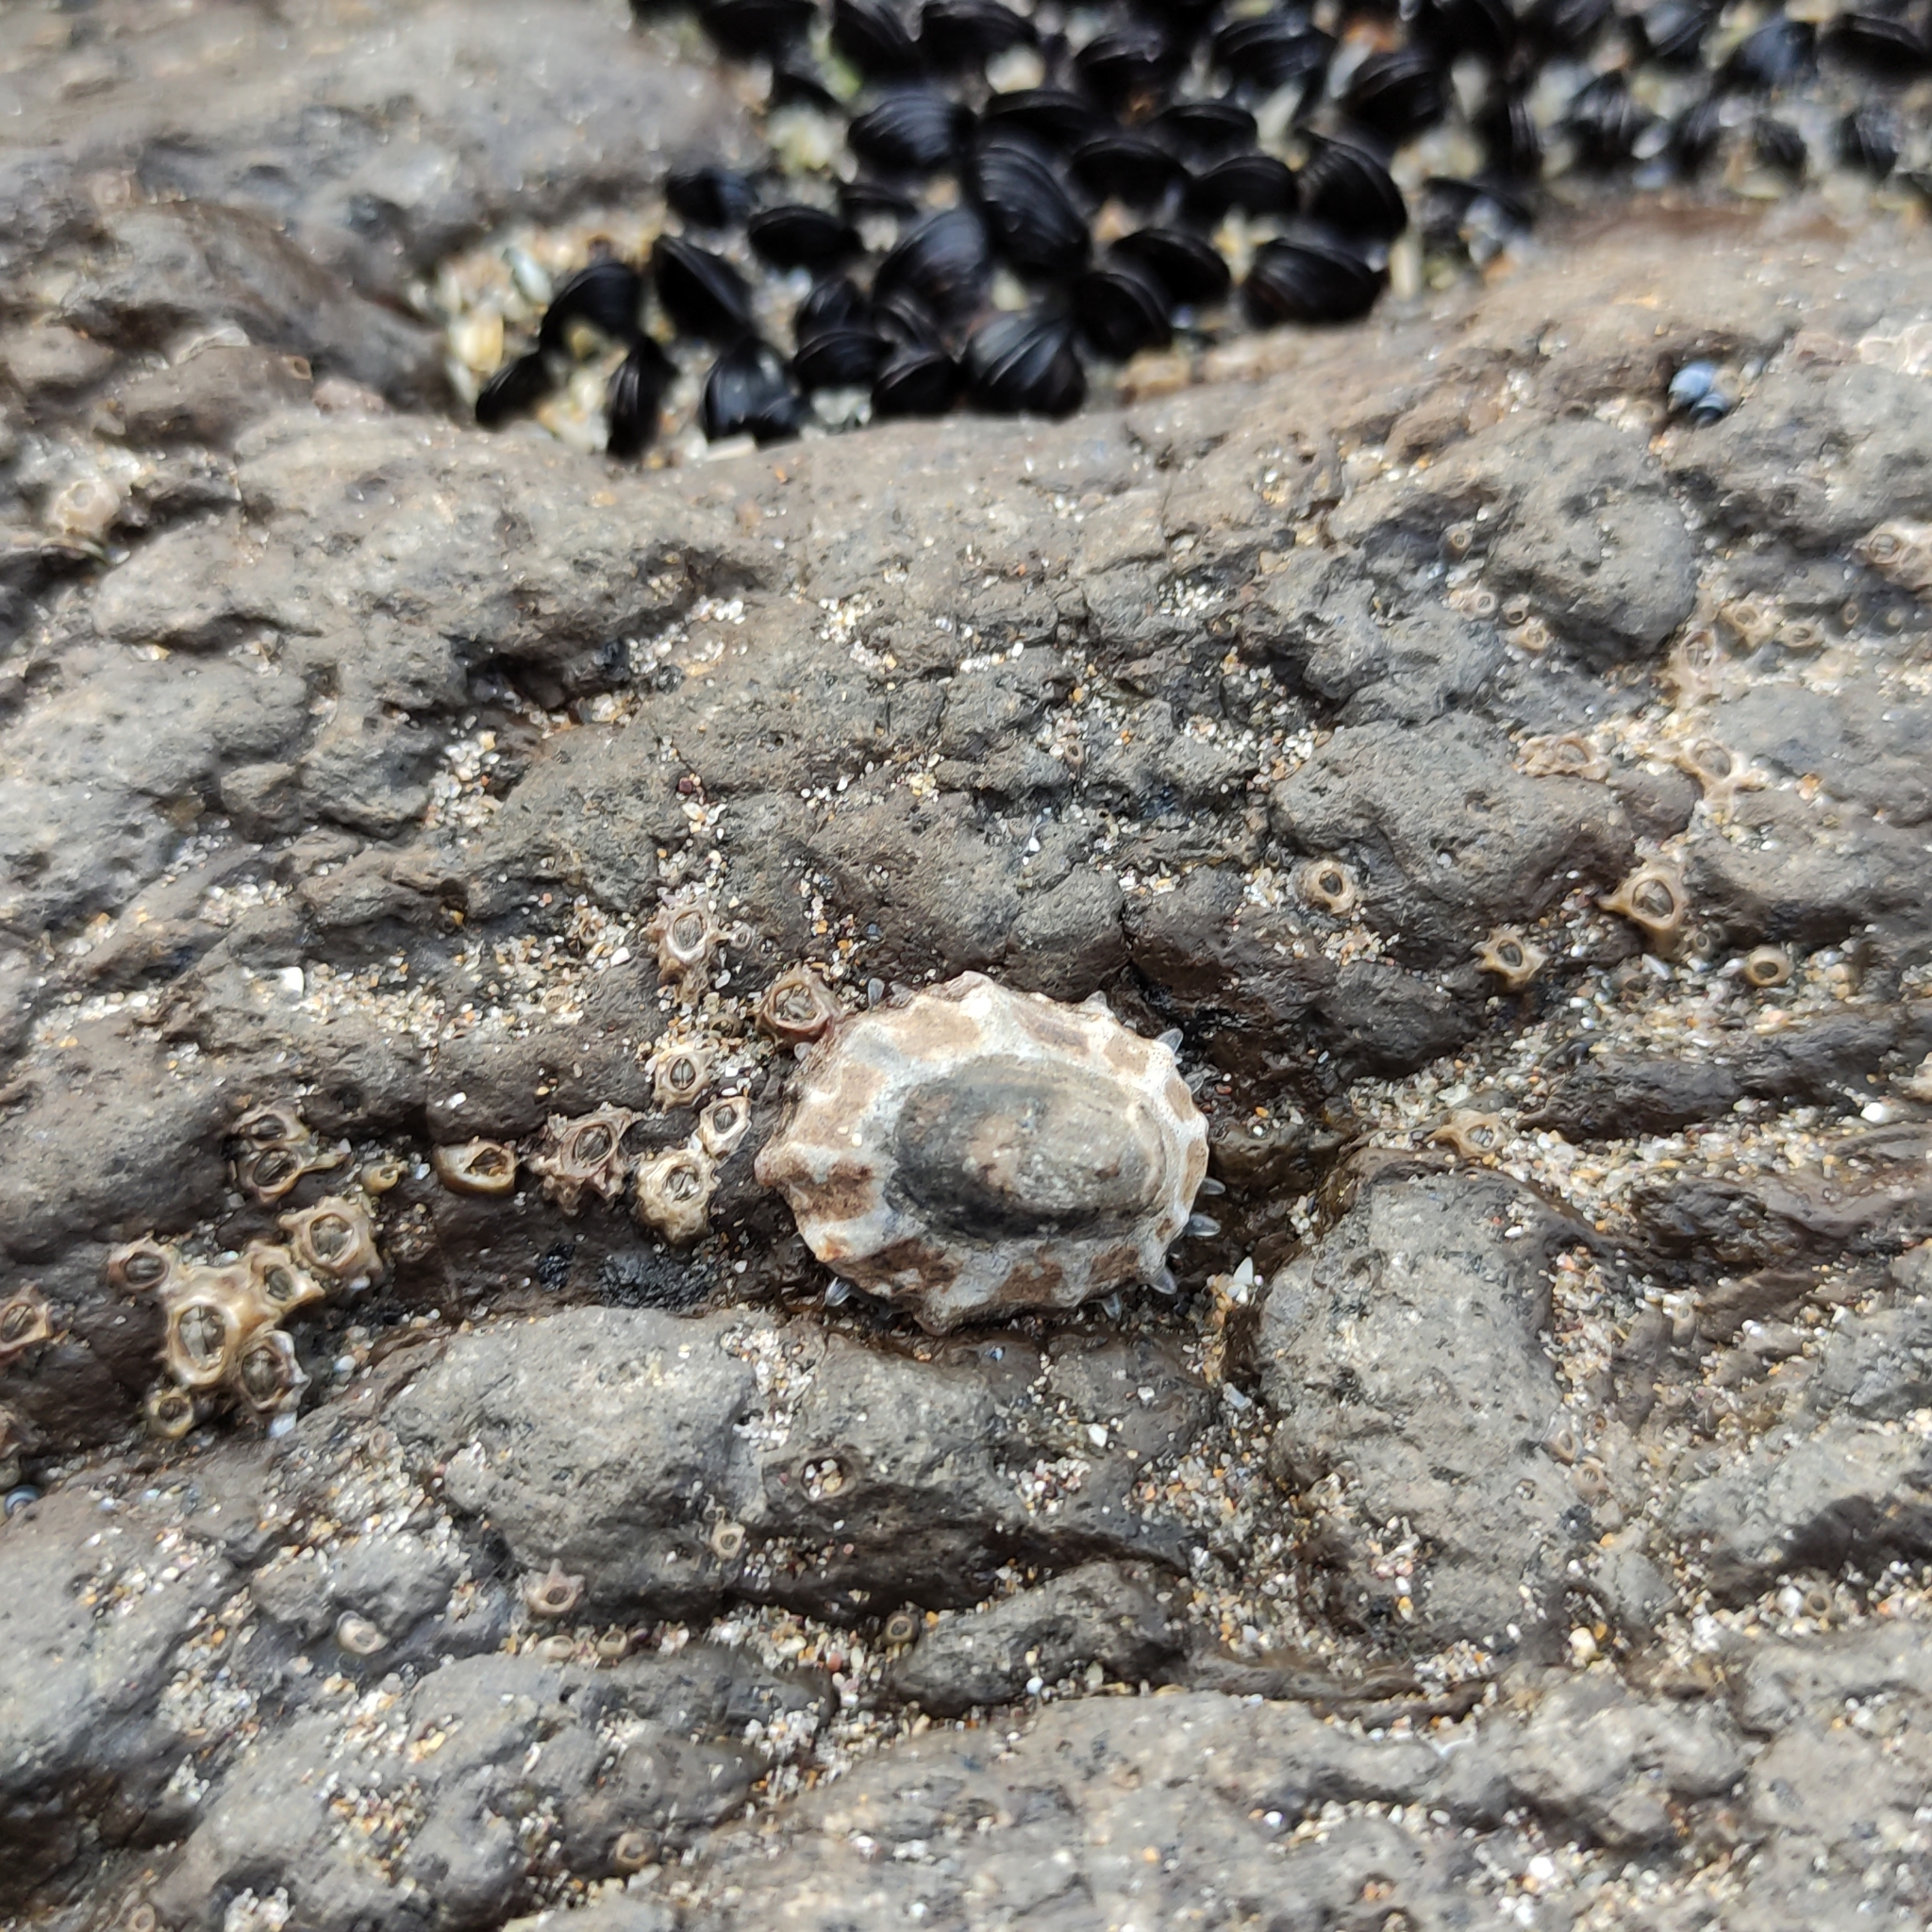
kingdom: Animalia
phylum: Mollusca
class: Gastropoda
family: Nacellidae
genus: Cellana
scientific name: Cellana ornata
